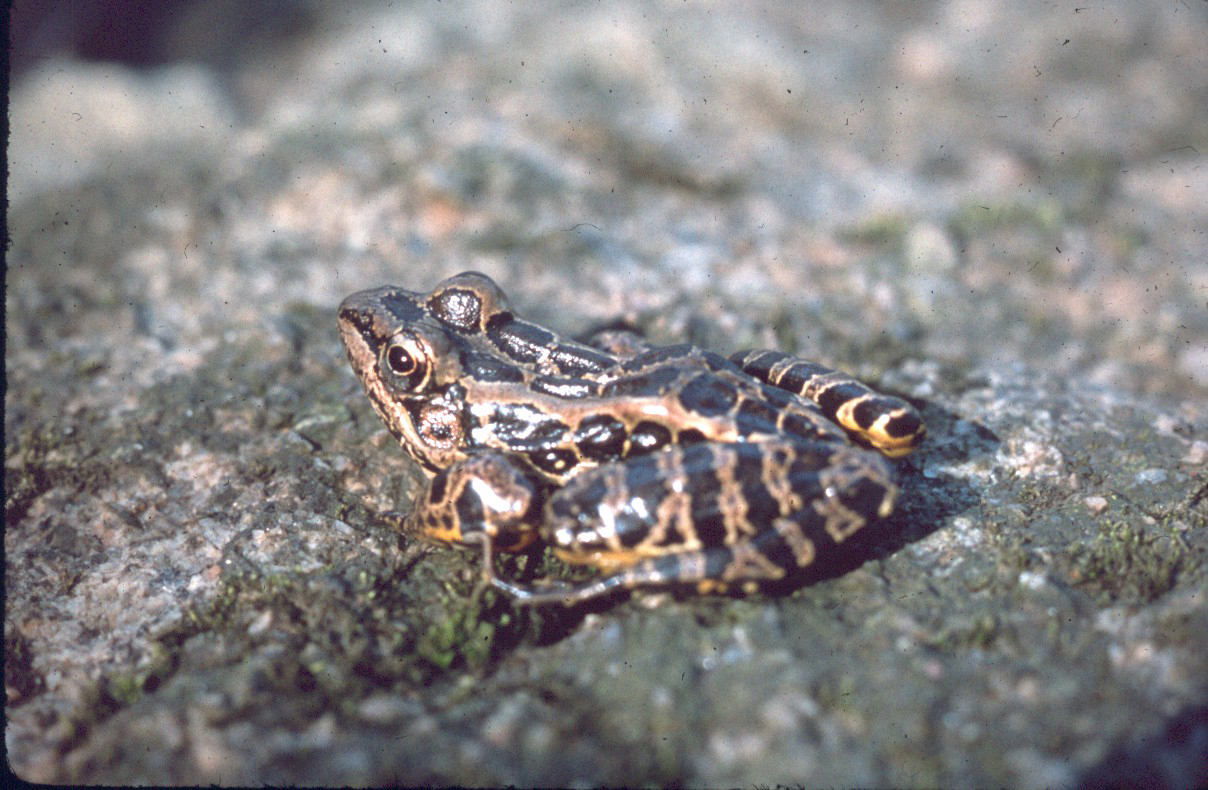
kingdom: Animalia
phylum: Chordata
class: Amphibia
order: Anura
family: Ranidae
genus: Lithobates
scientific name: Lithobates palustris
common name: Pickerel frog
